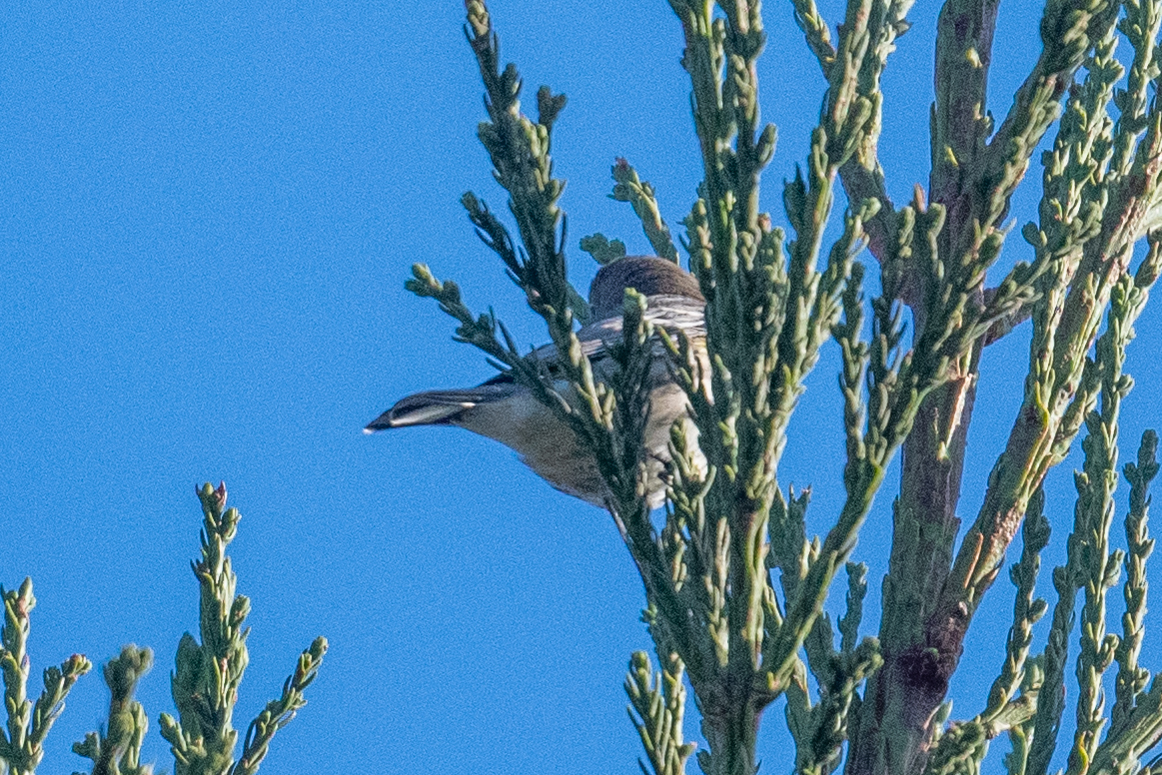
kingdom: Animalia
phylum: Chordata
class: Aves
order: Passeriformes
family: Parulidae
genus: Setophaga
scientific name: Setophaga coronata
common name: Myrtle warbler
